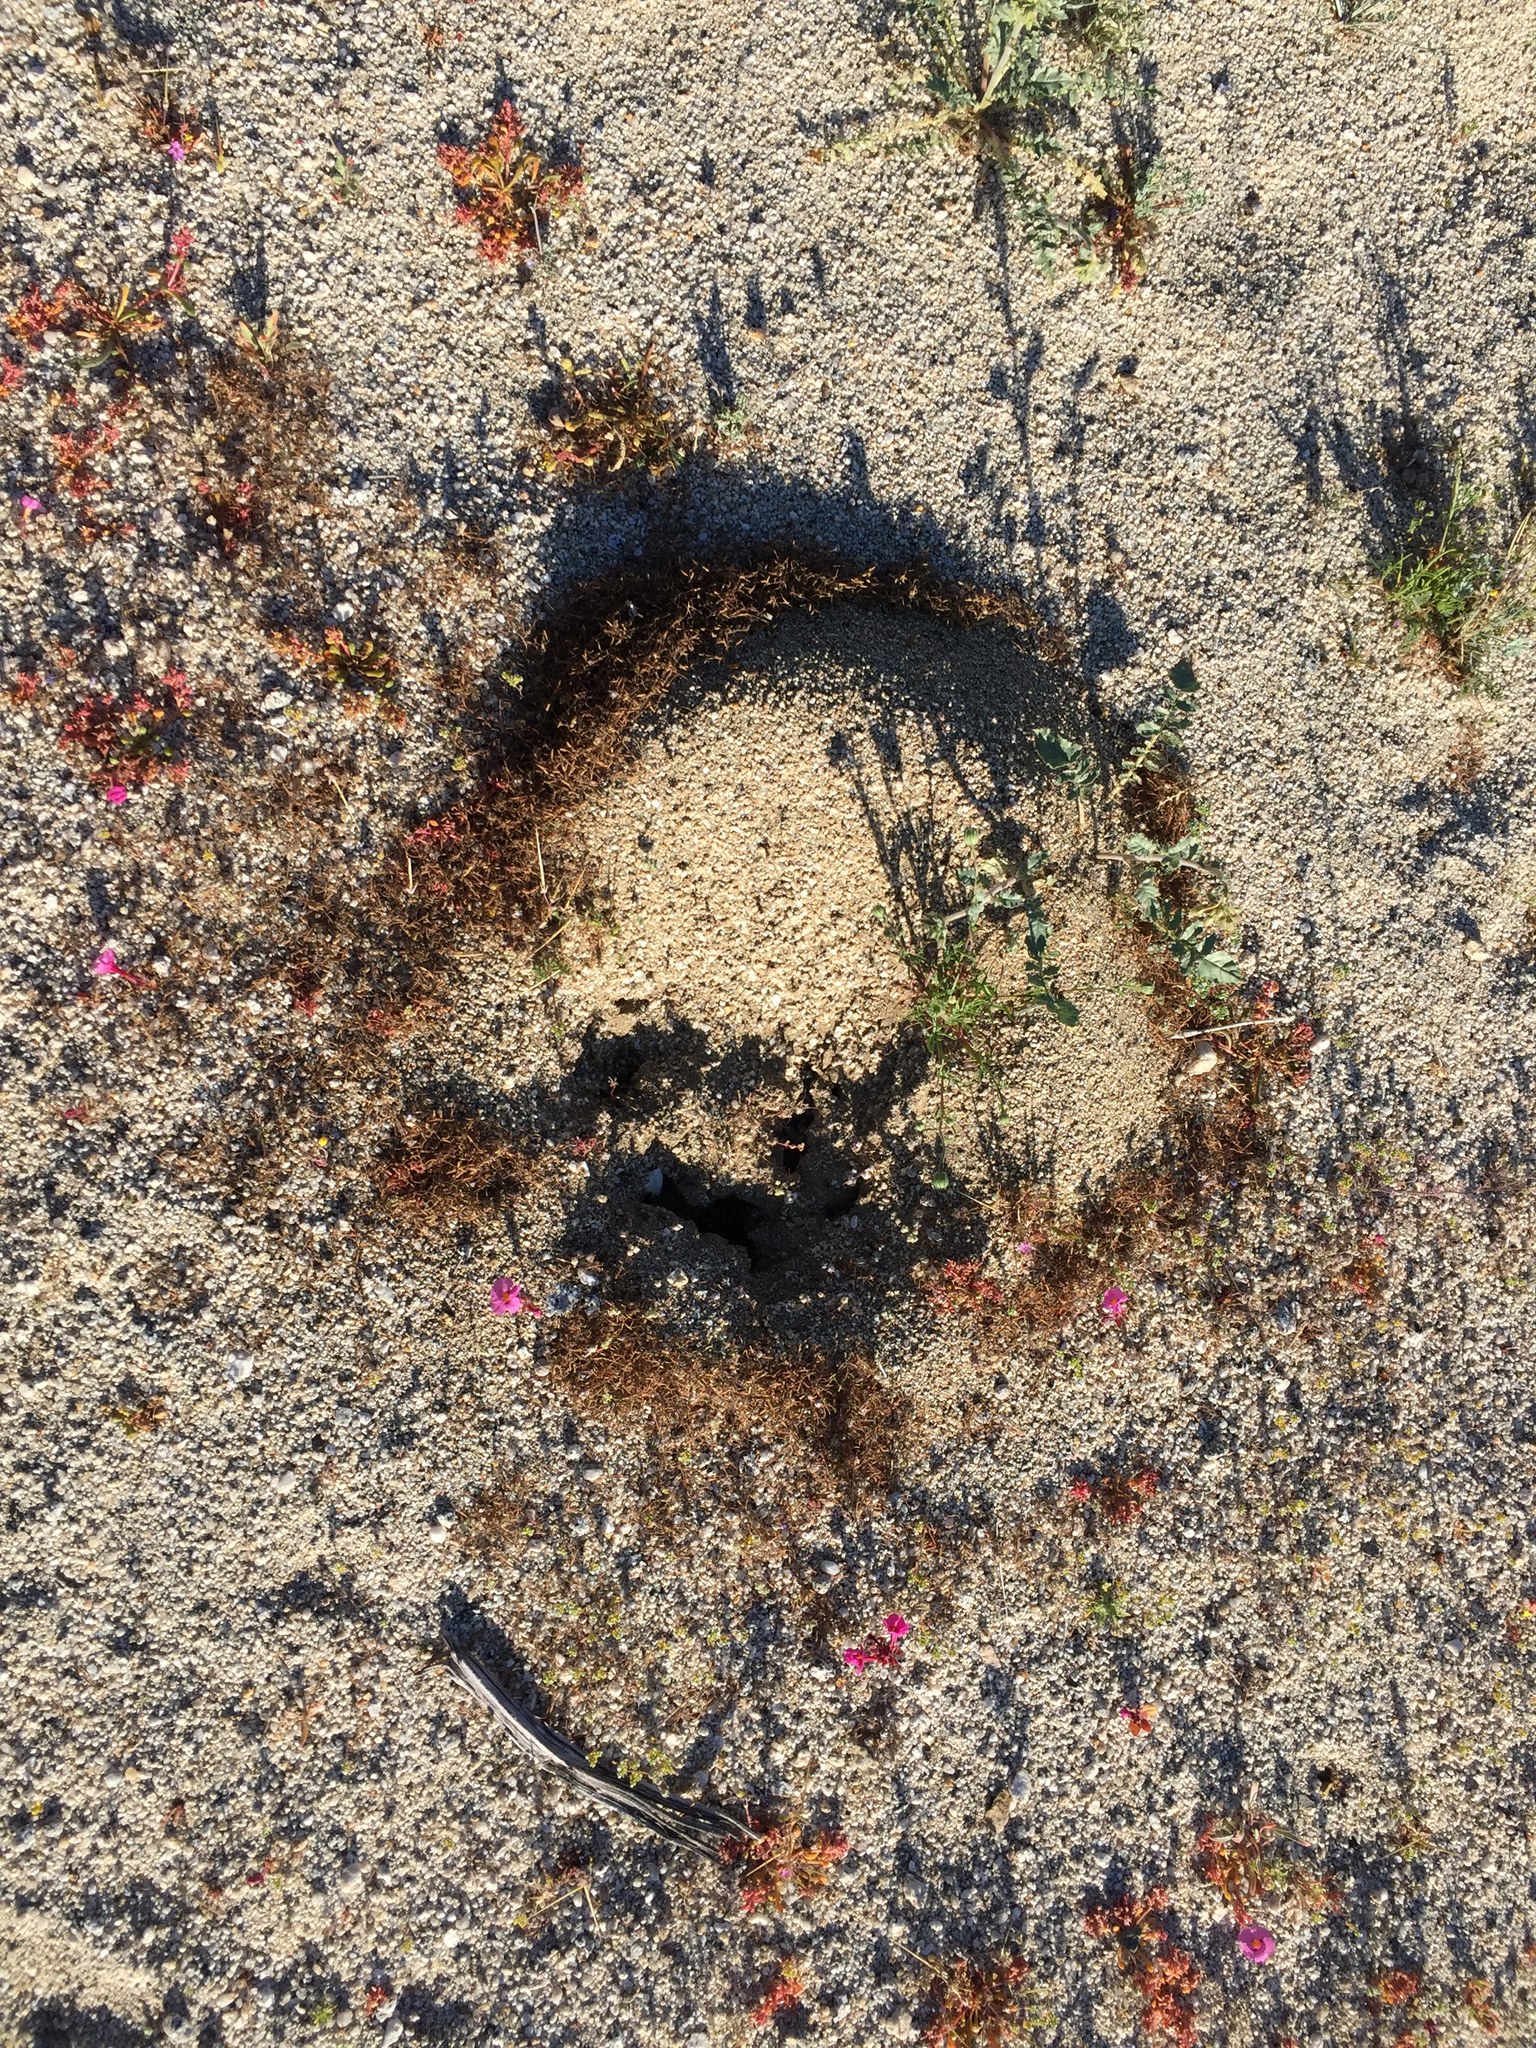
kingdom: Animalia
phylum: Arthropoda
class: Insecta
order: Hymenoptera
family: Formicidae
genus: Messor
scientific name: Messor pergandei
